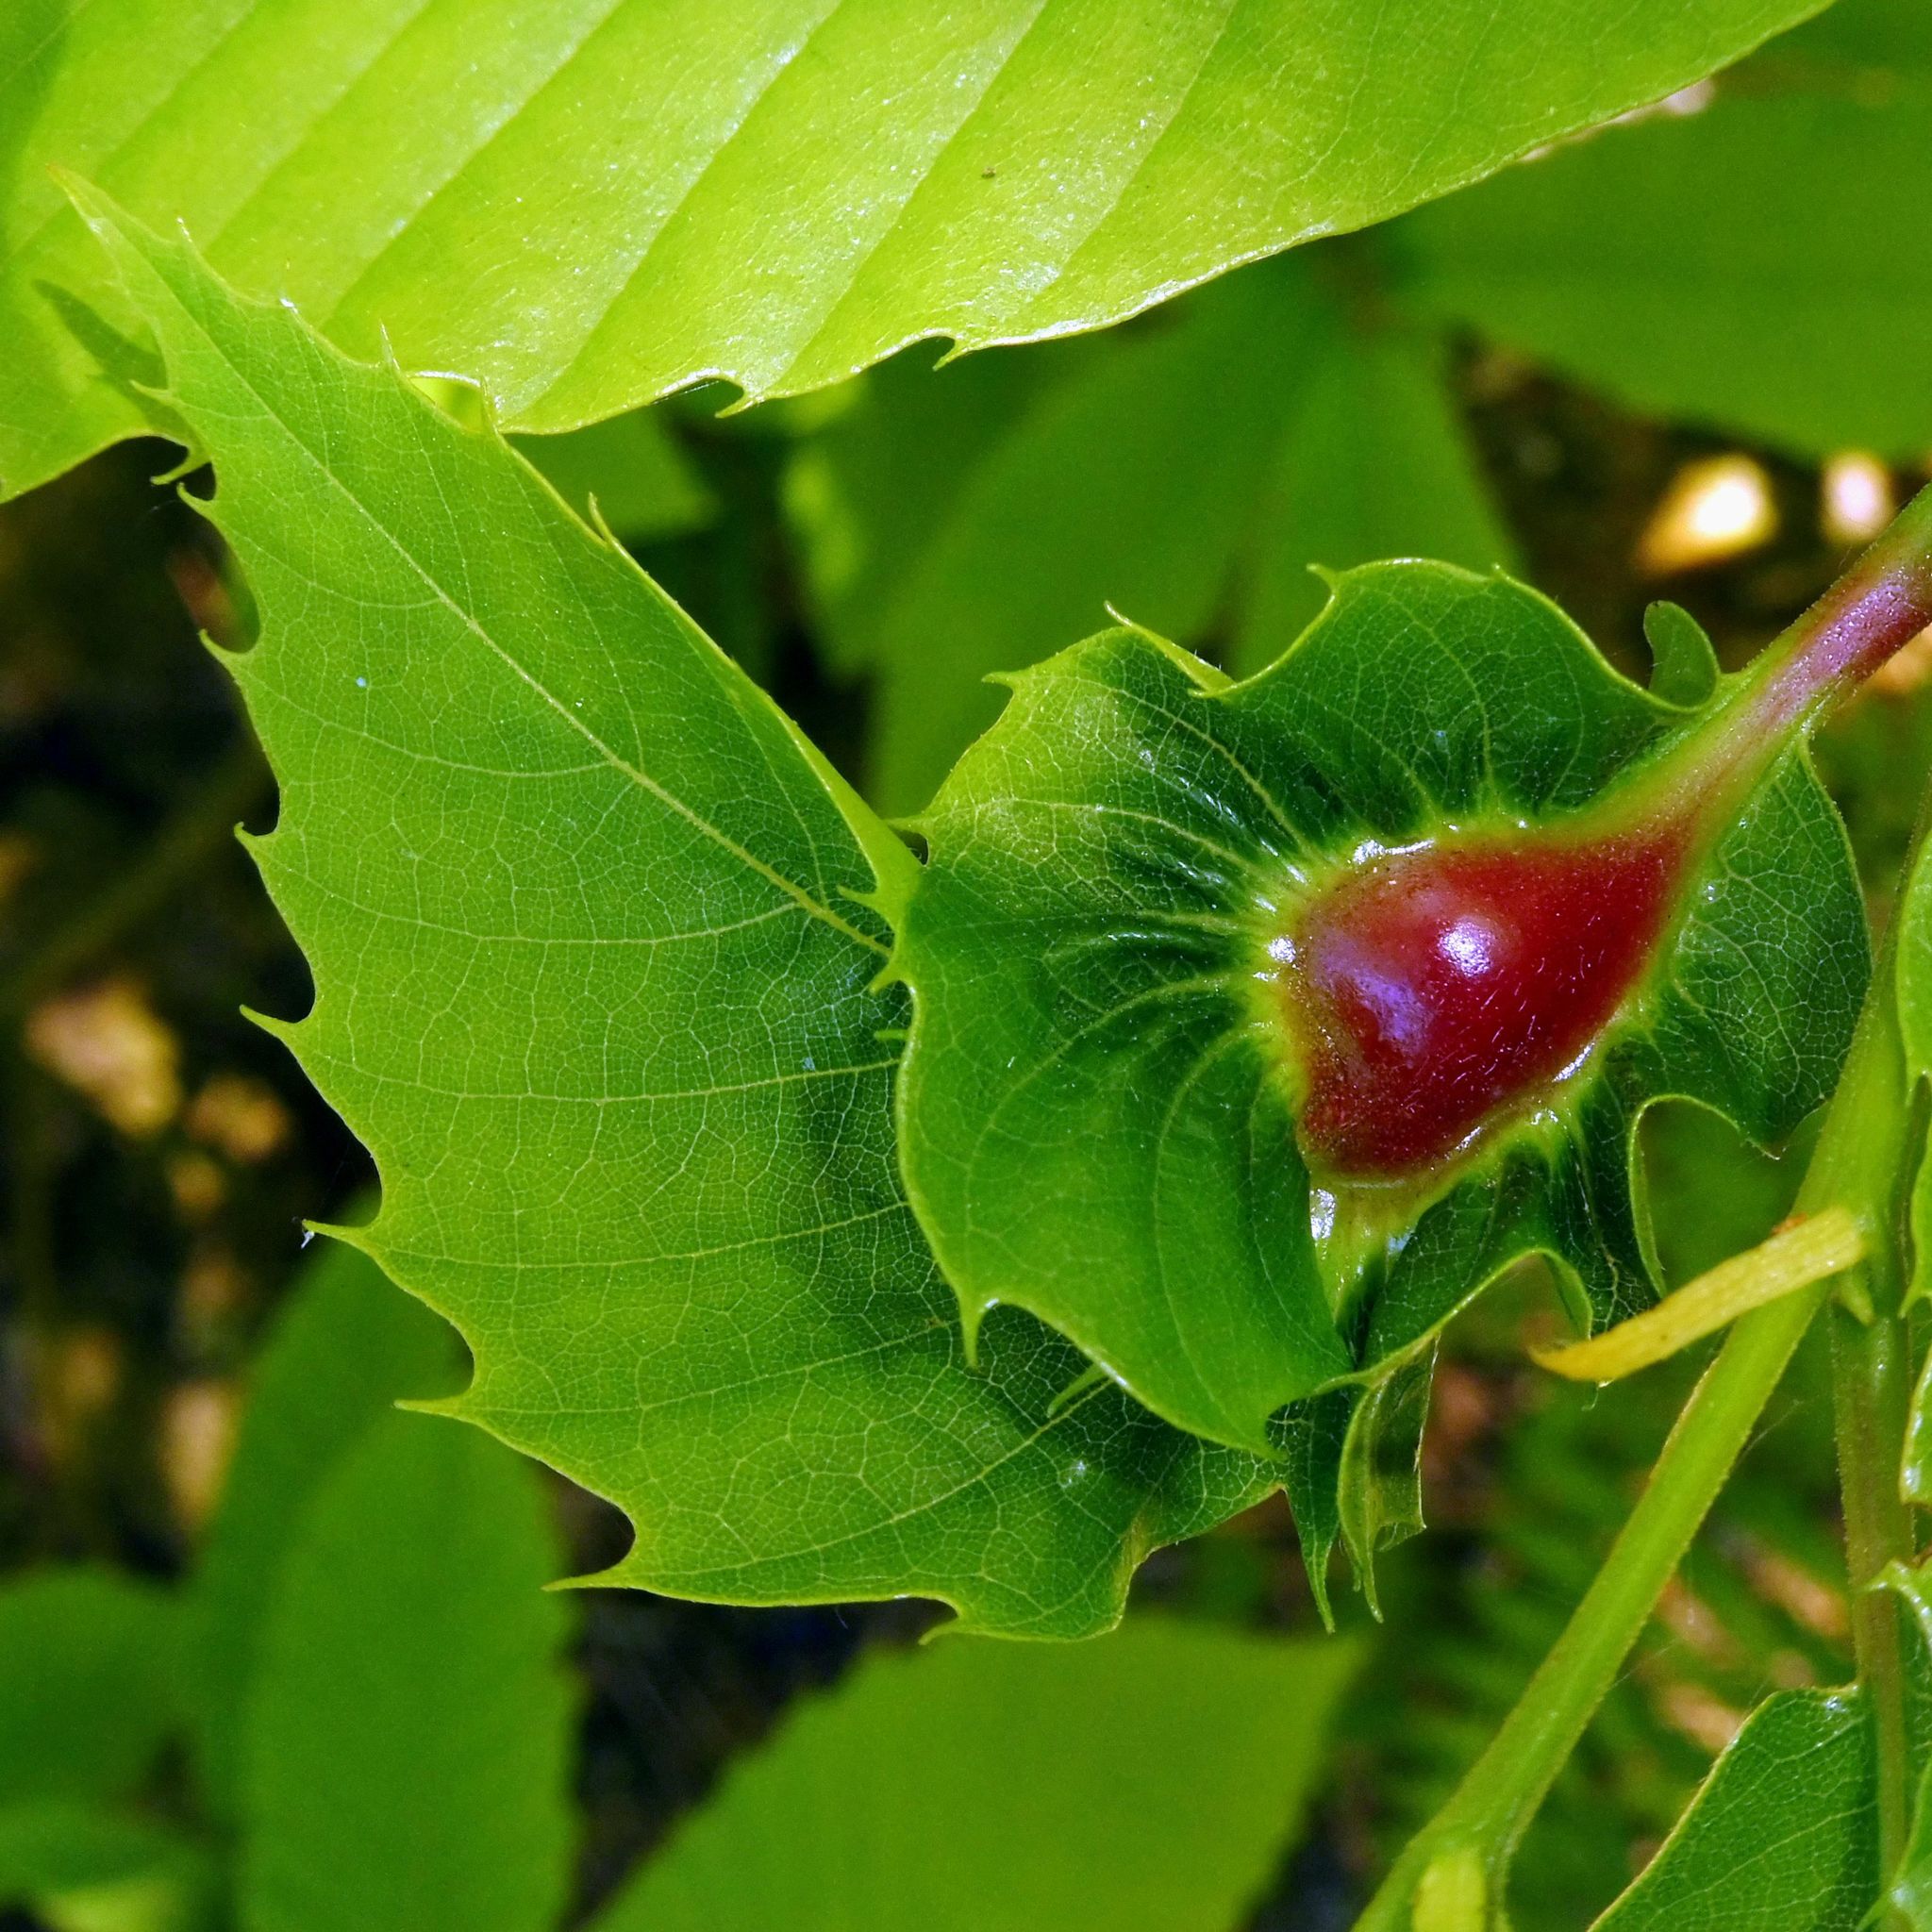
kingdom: Animalia
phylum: Arthropoda
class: Insecta
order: Hymenoptera
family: Cynipidae
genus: Dryocosmus
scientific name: Dryocosmus kuriphilus
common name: Asian chestnut gall wasp
